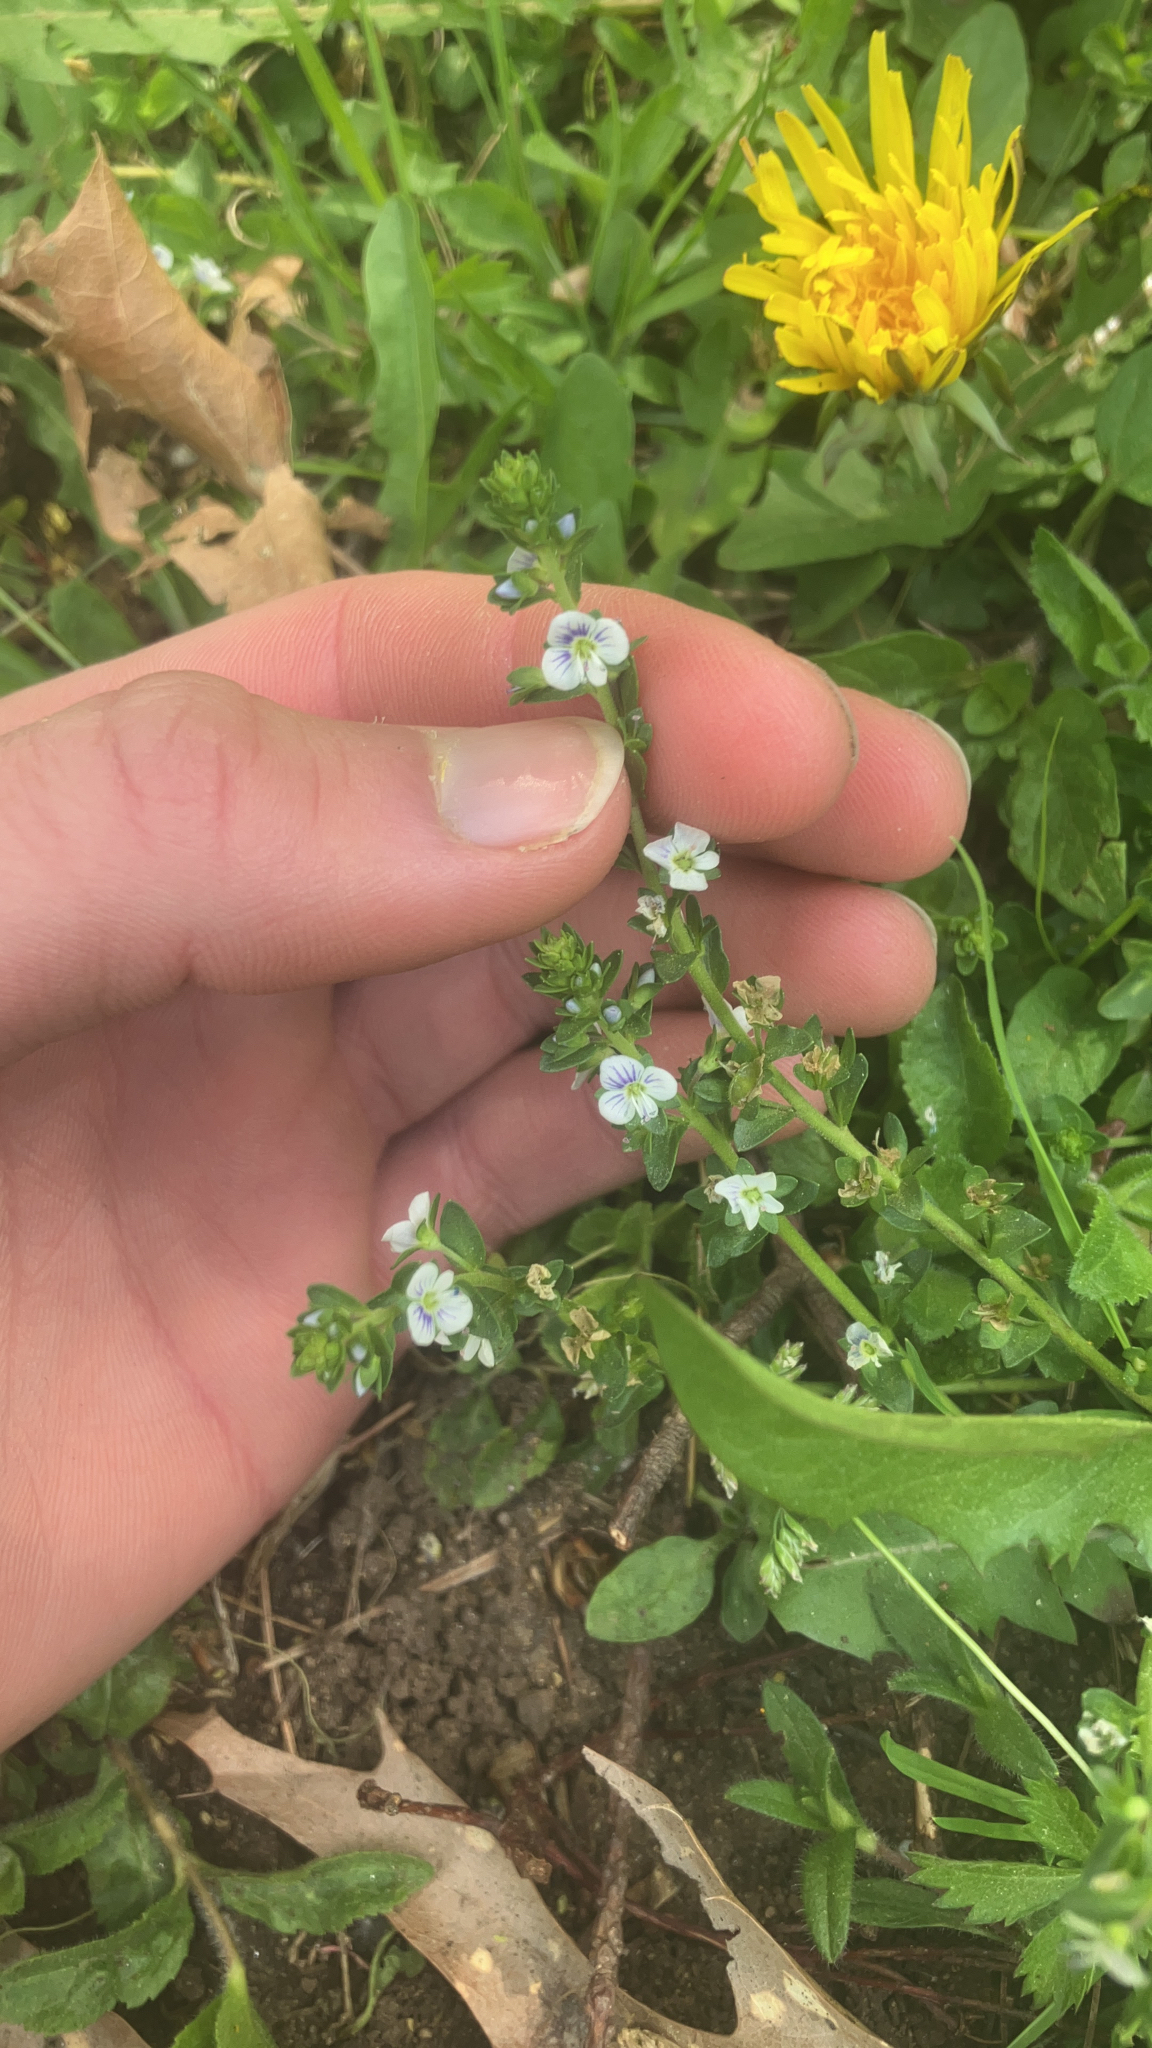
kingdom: Plantae
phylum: Tracheophyta
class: Magnoliopsida
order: Lamiales
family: Plantaginaceae
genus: Veronica
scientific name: Veronica serpyllifolia
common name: Thyme-leaved speedwell
